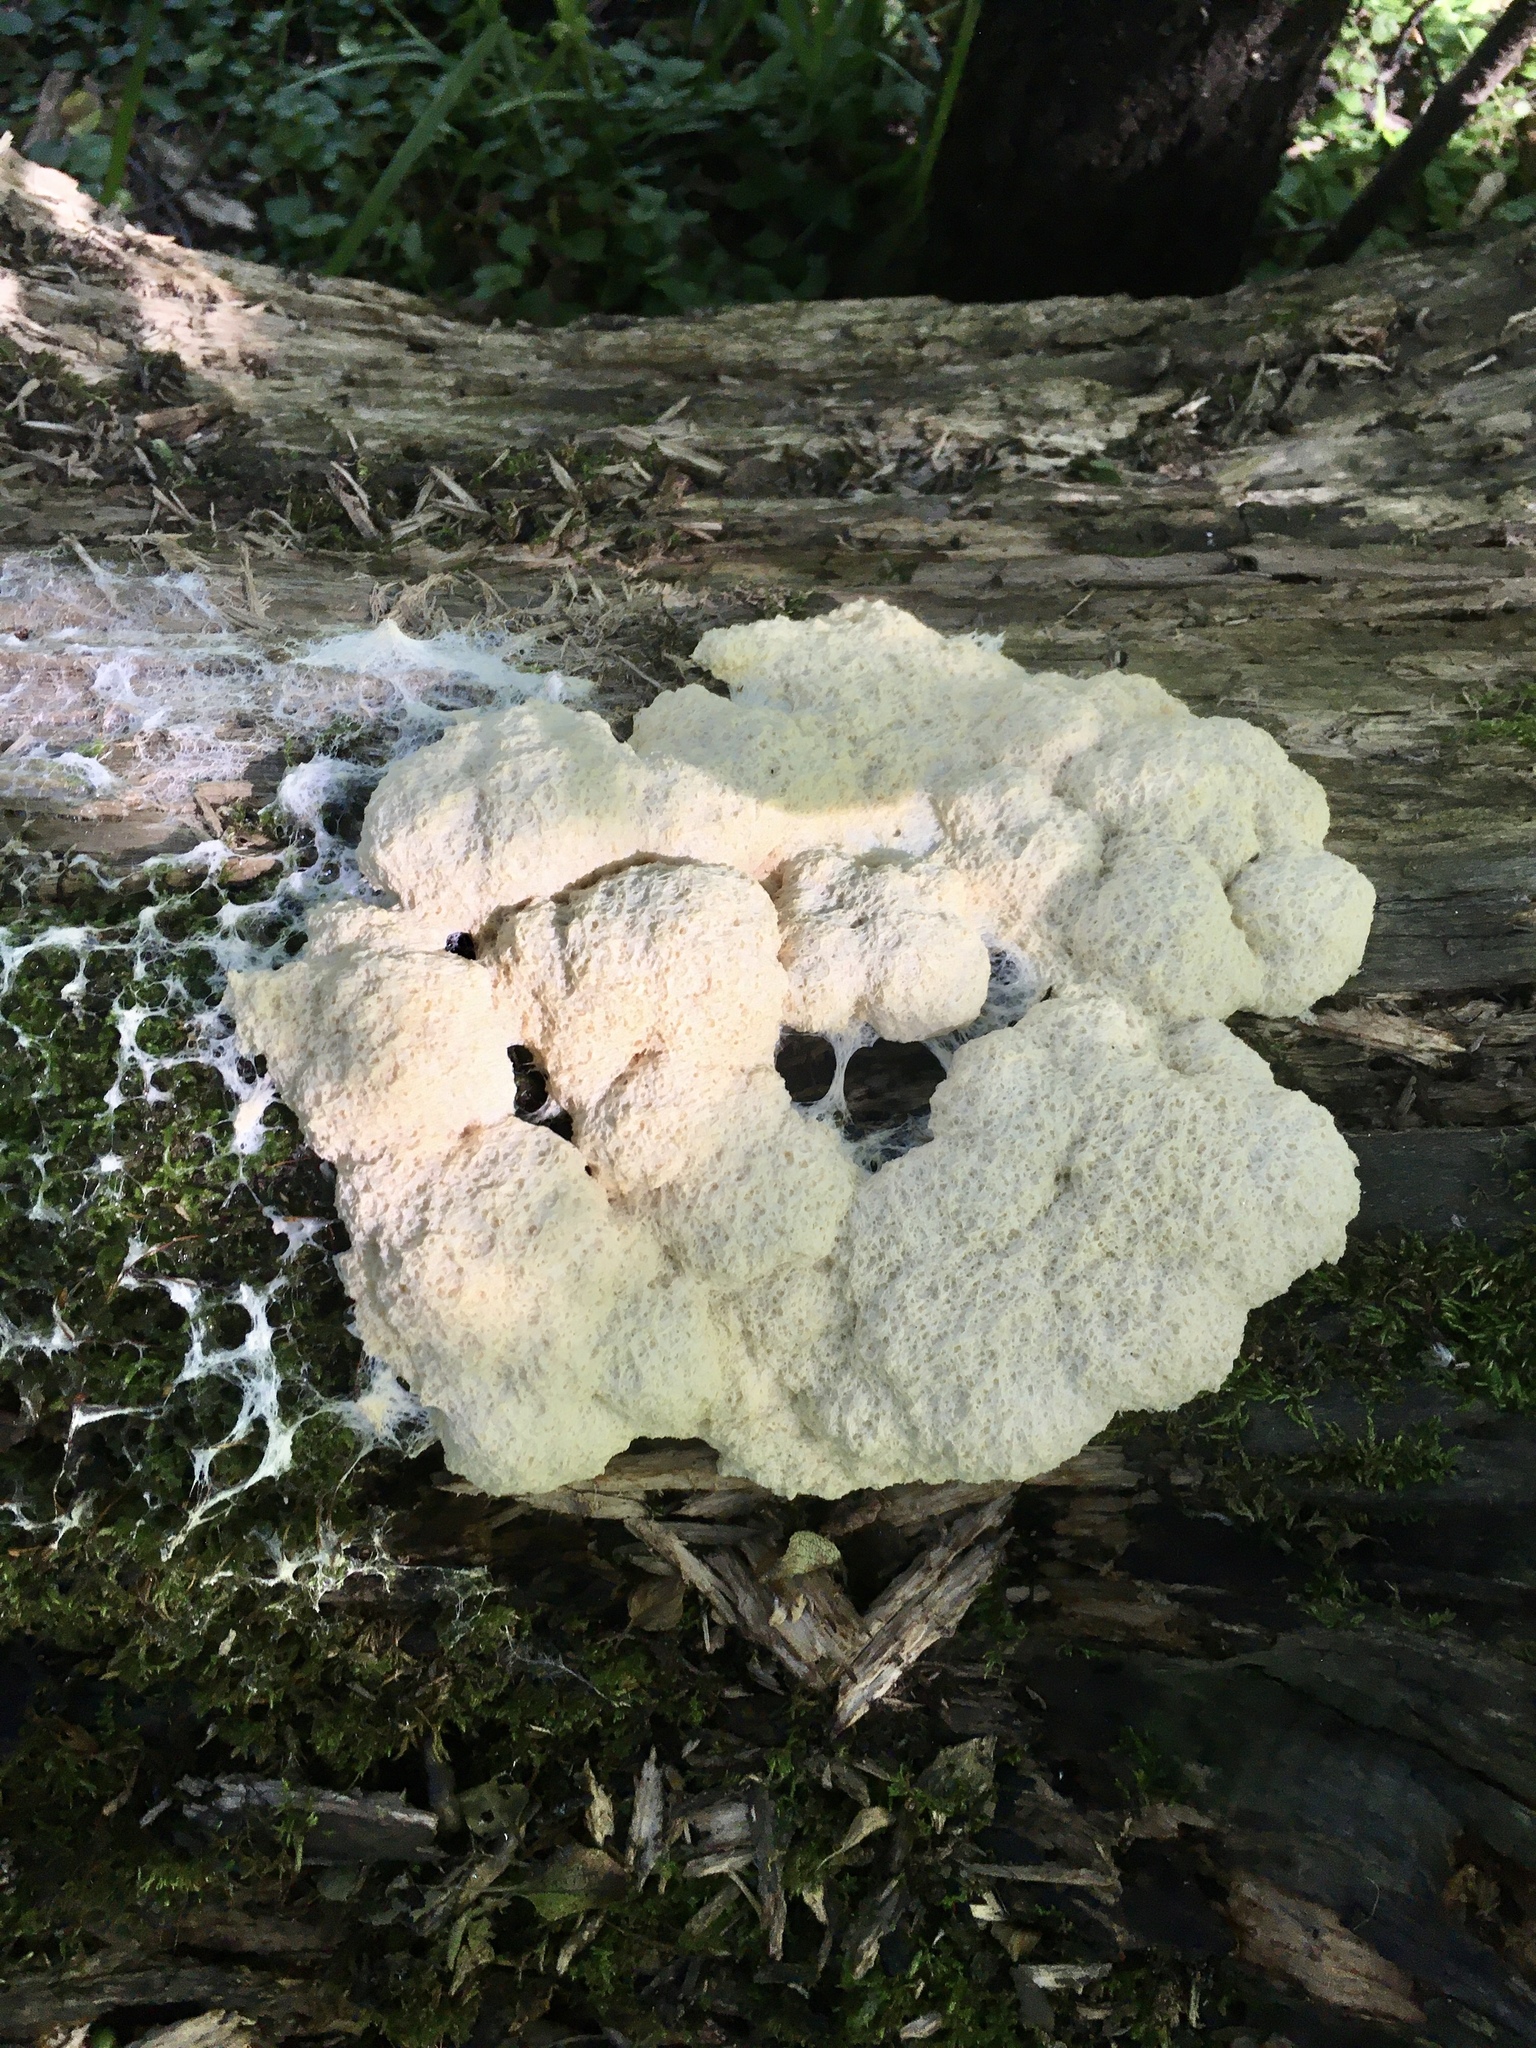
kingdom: Protozoa
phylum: Mycetozoa
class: Myxomycetes
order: Physarales
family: Physaraceae
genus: Fuligo
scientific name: Fuligo septica
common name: Dog vomit slime mold
